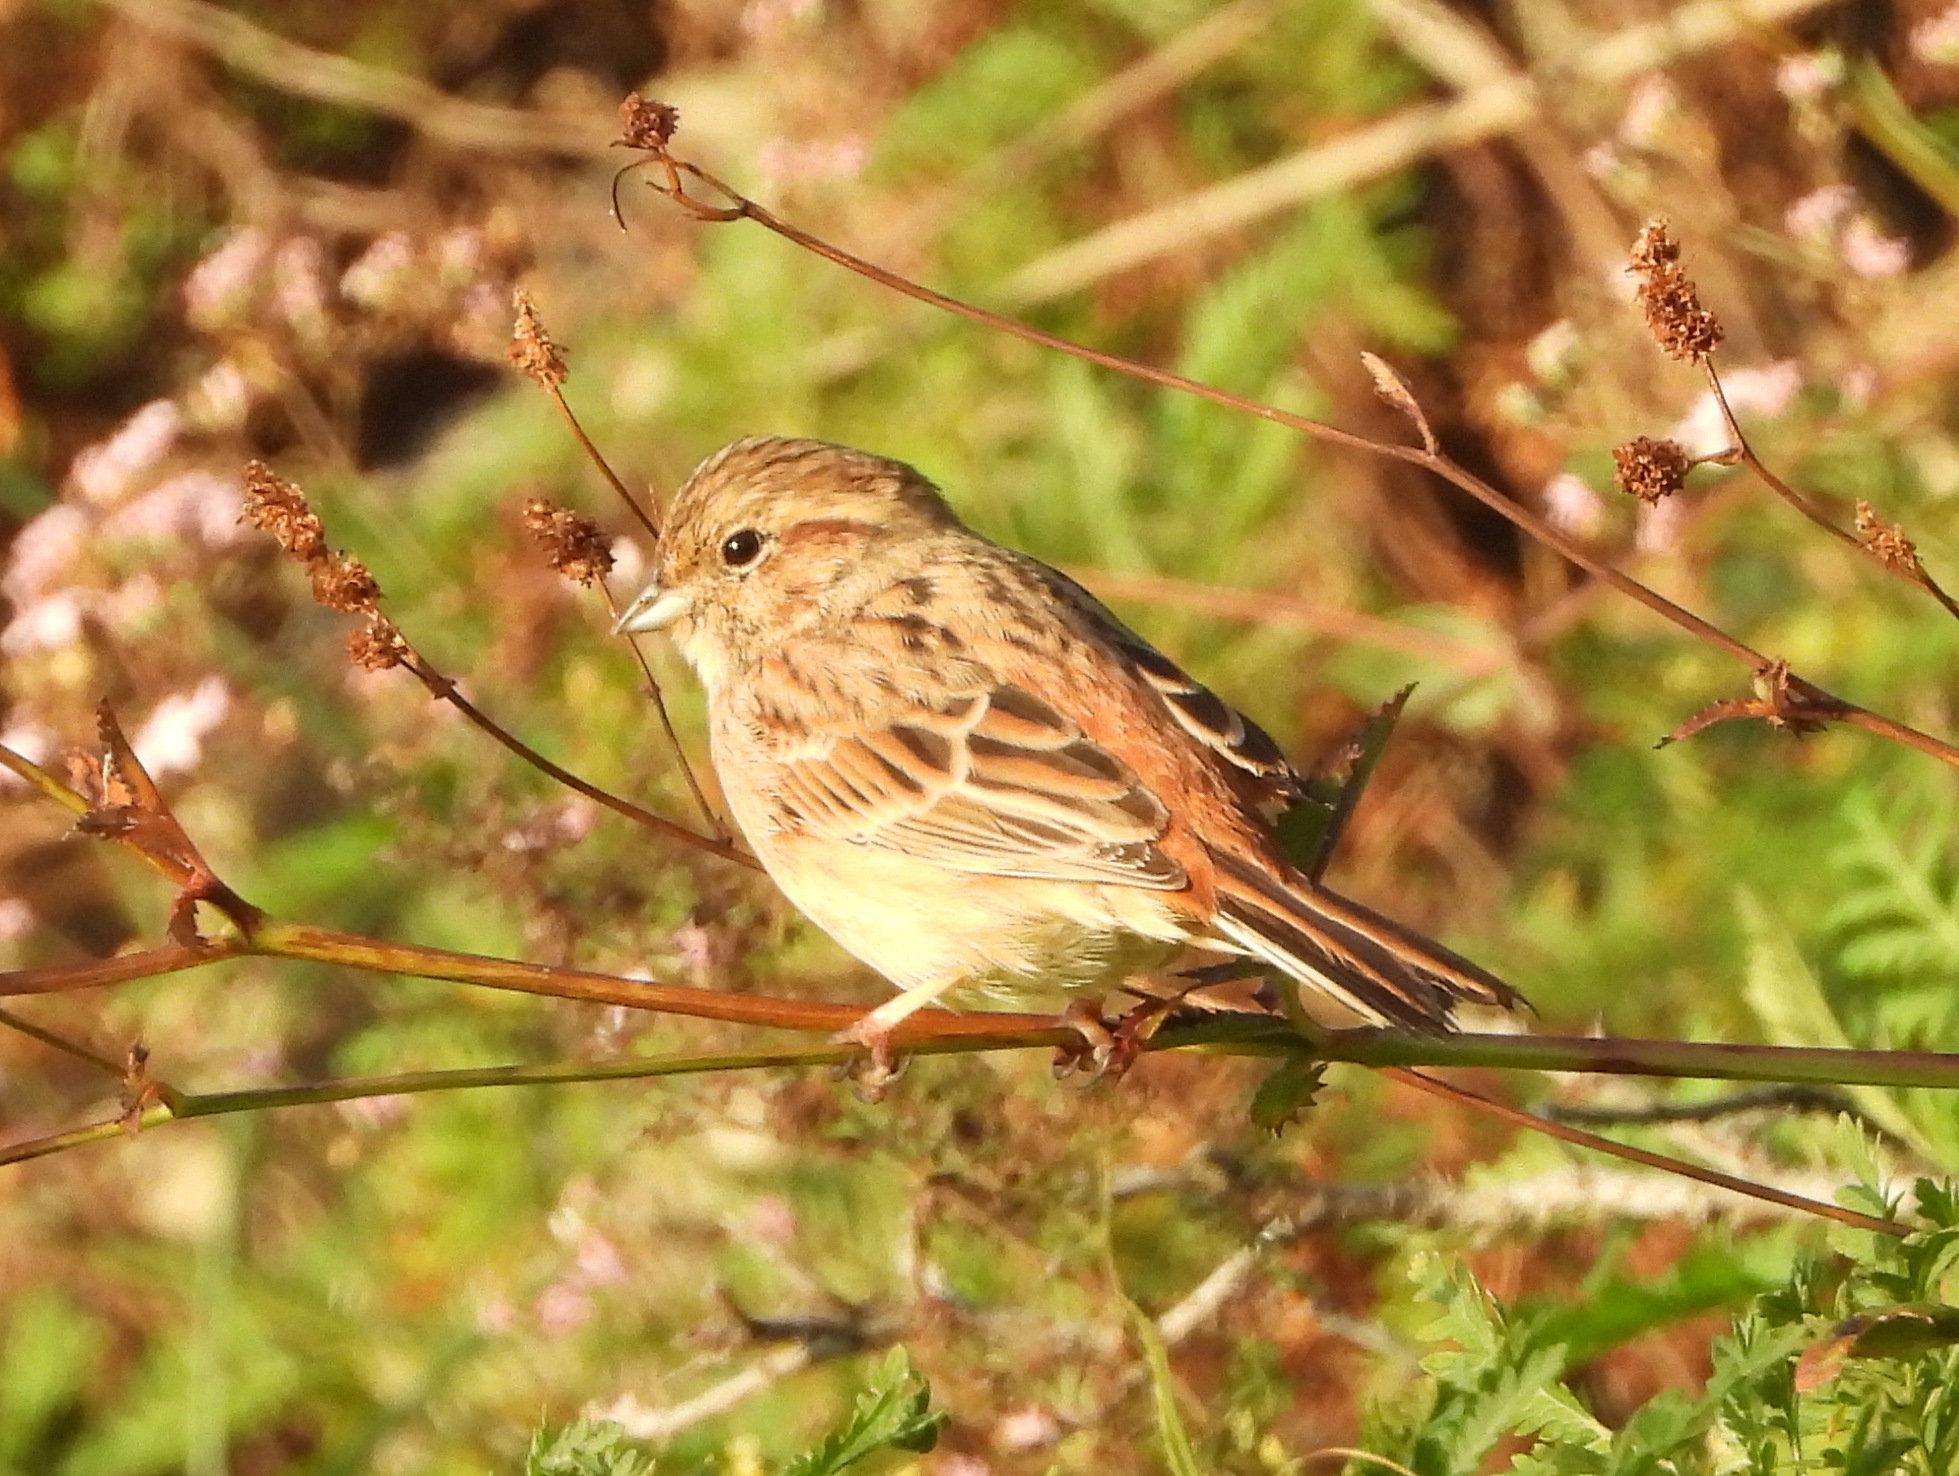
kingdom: Animalia
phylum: Chordata
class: Aves
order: Passeriformes
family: Emberizidae
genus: Emberiza
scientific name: Emberiza cioides
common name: Meadow bunting
